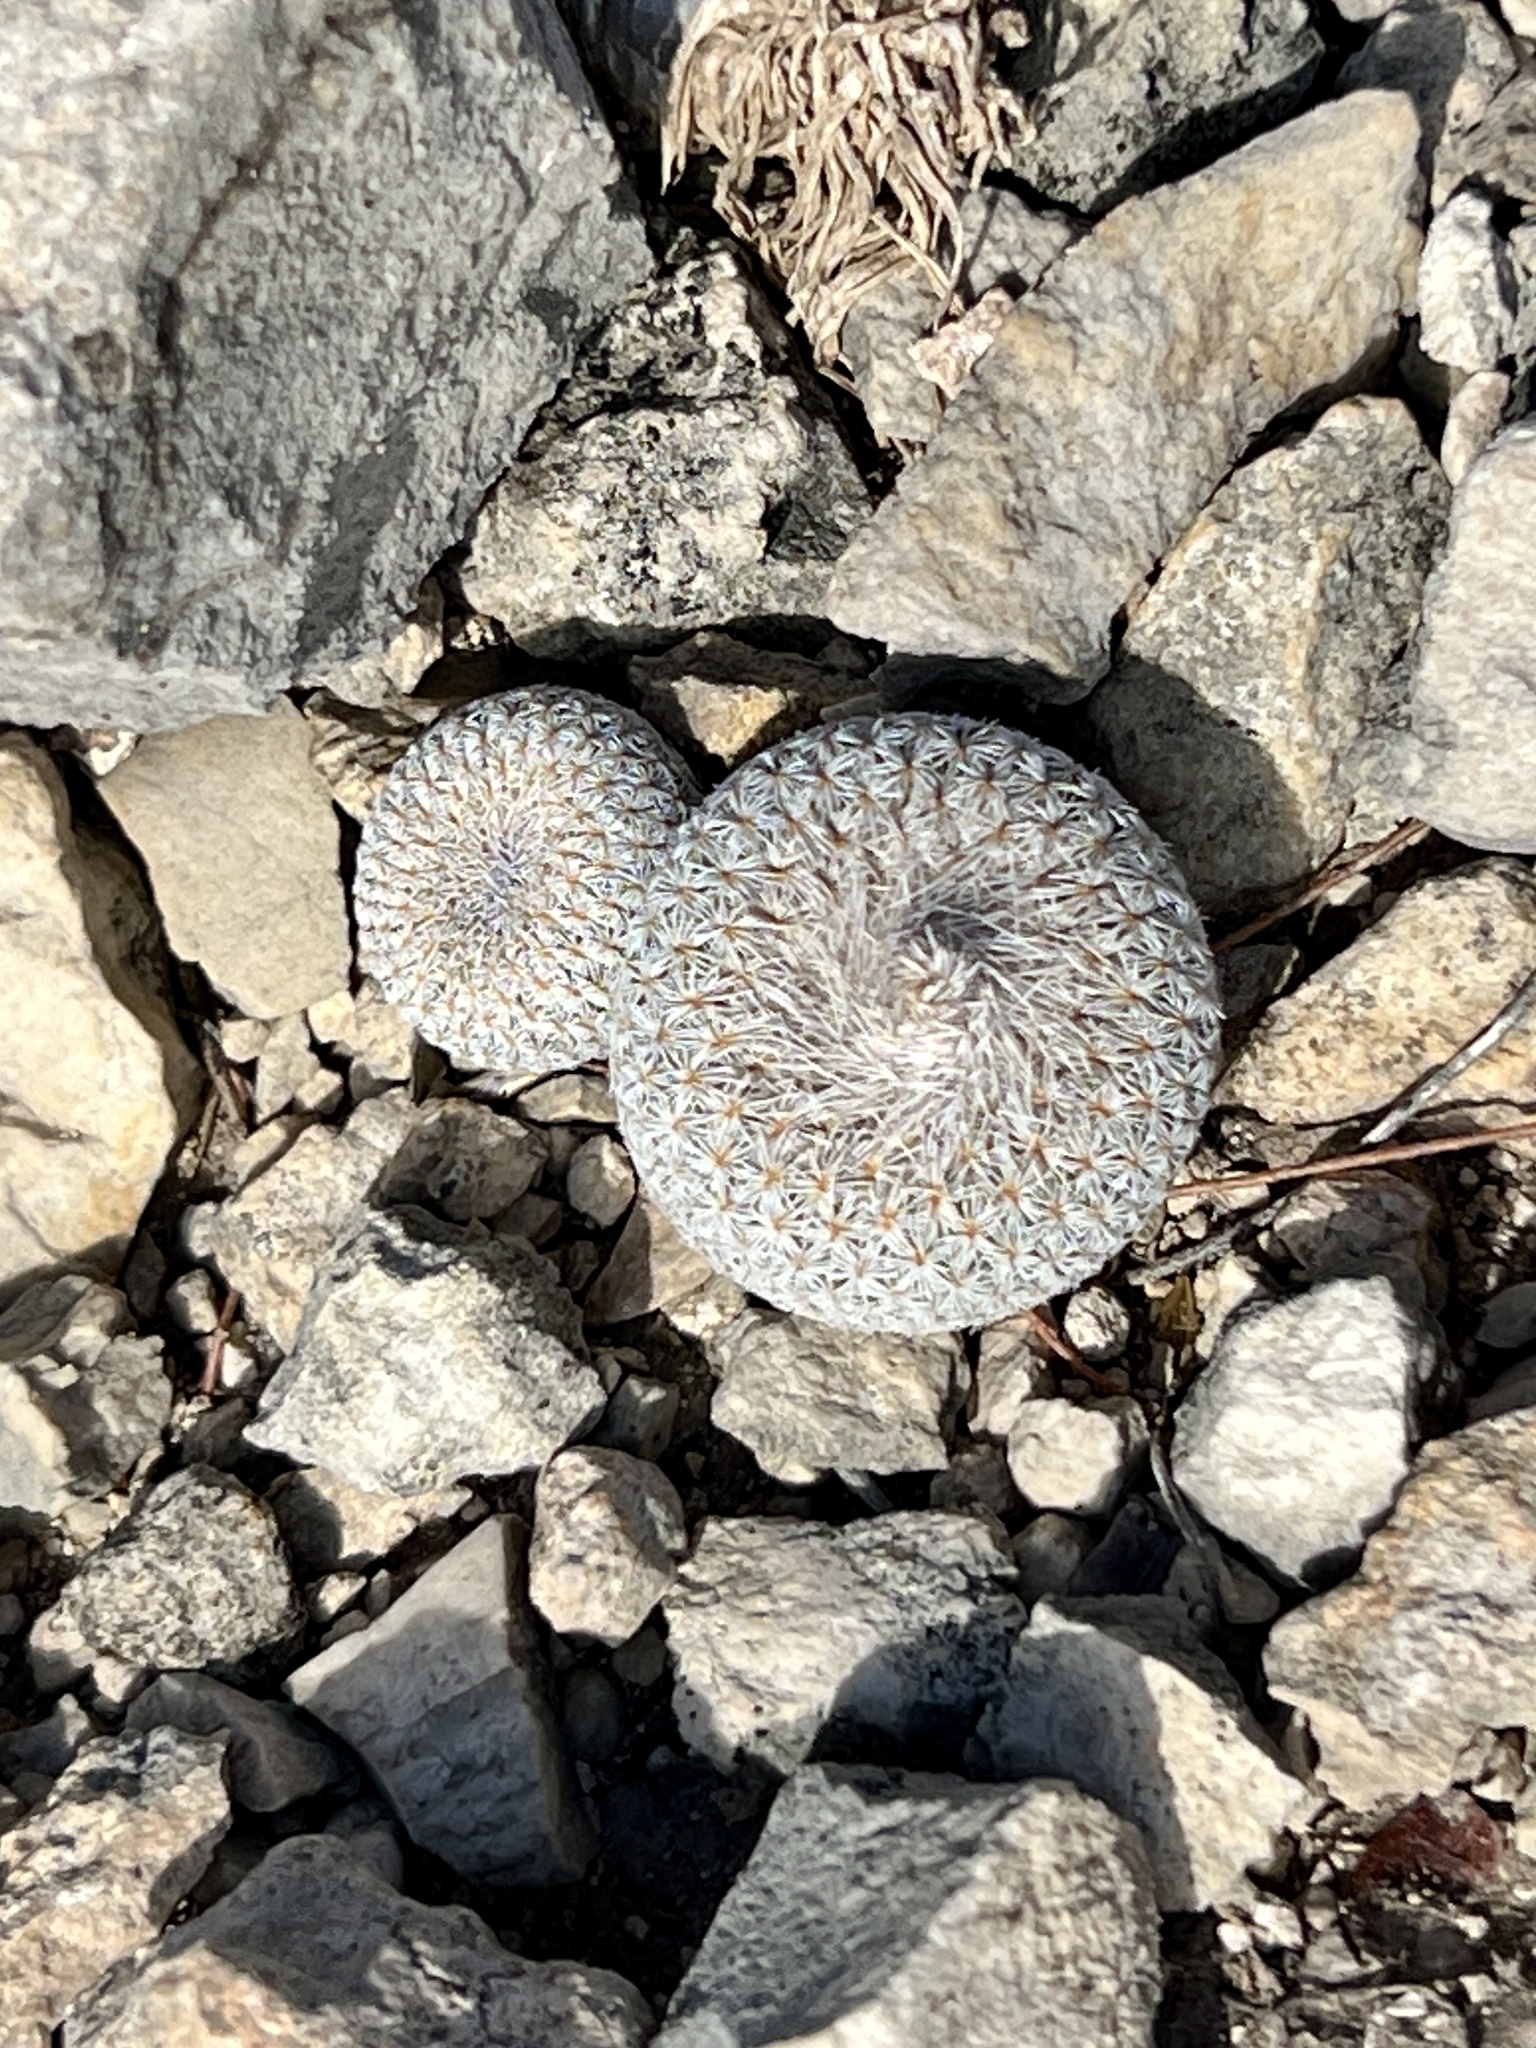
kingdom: Plantae
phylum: Tracheophyta
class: Magnoliopsida
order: Caryophyllales
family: Cactaceae
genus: Epithelantha
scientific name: Epithelantha micromeris
